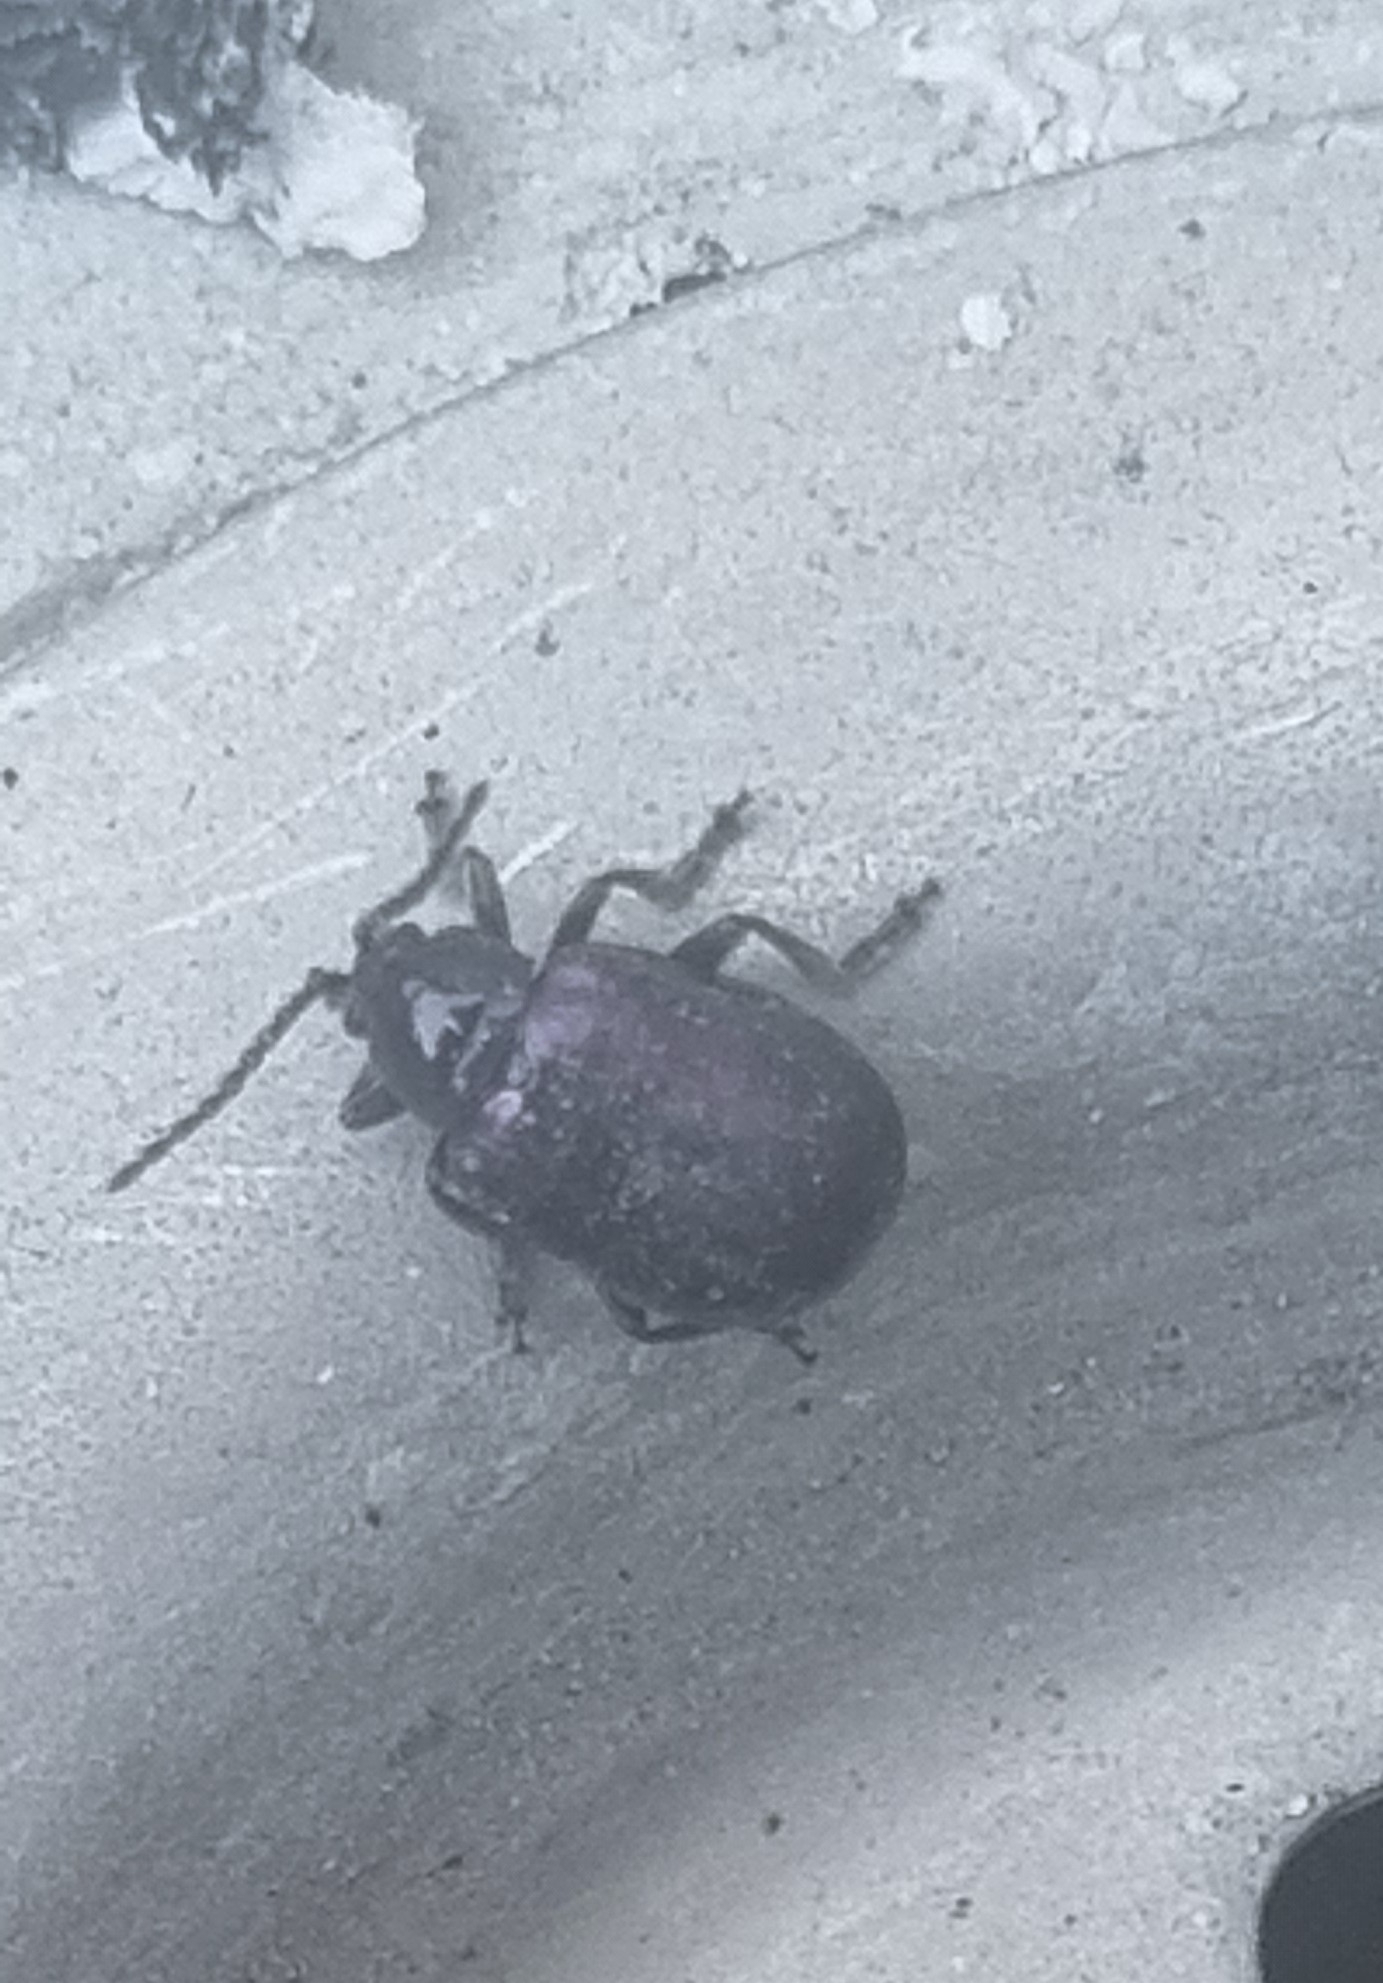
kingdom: Animalia
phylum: Arthropoda
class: Insecta
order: Coleoptera
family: Chrysomelidae
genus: Macrohaltica
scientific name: Macrohaltica
